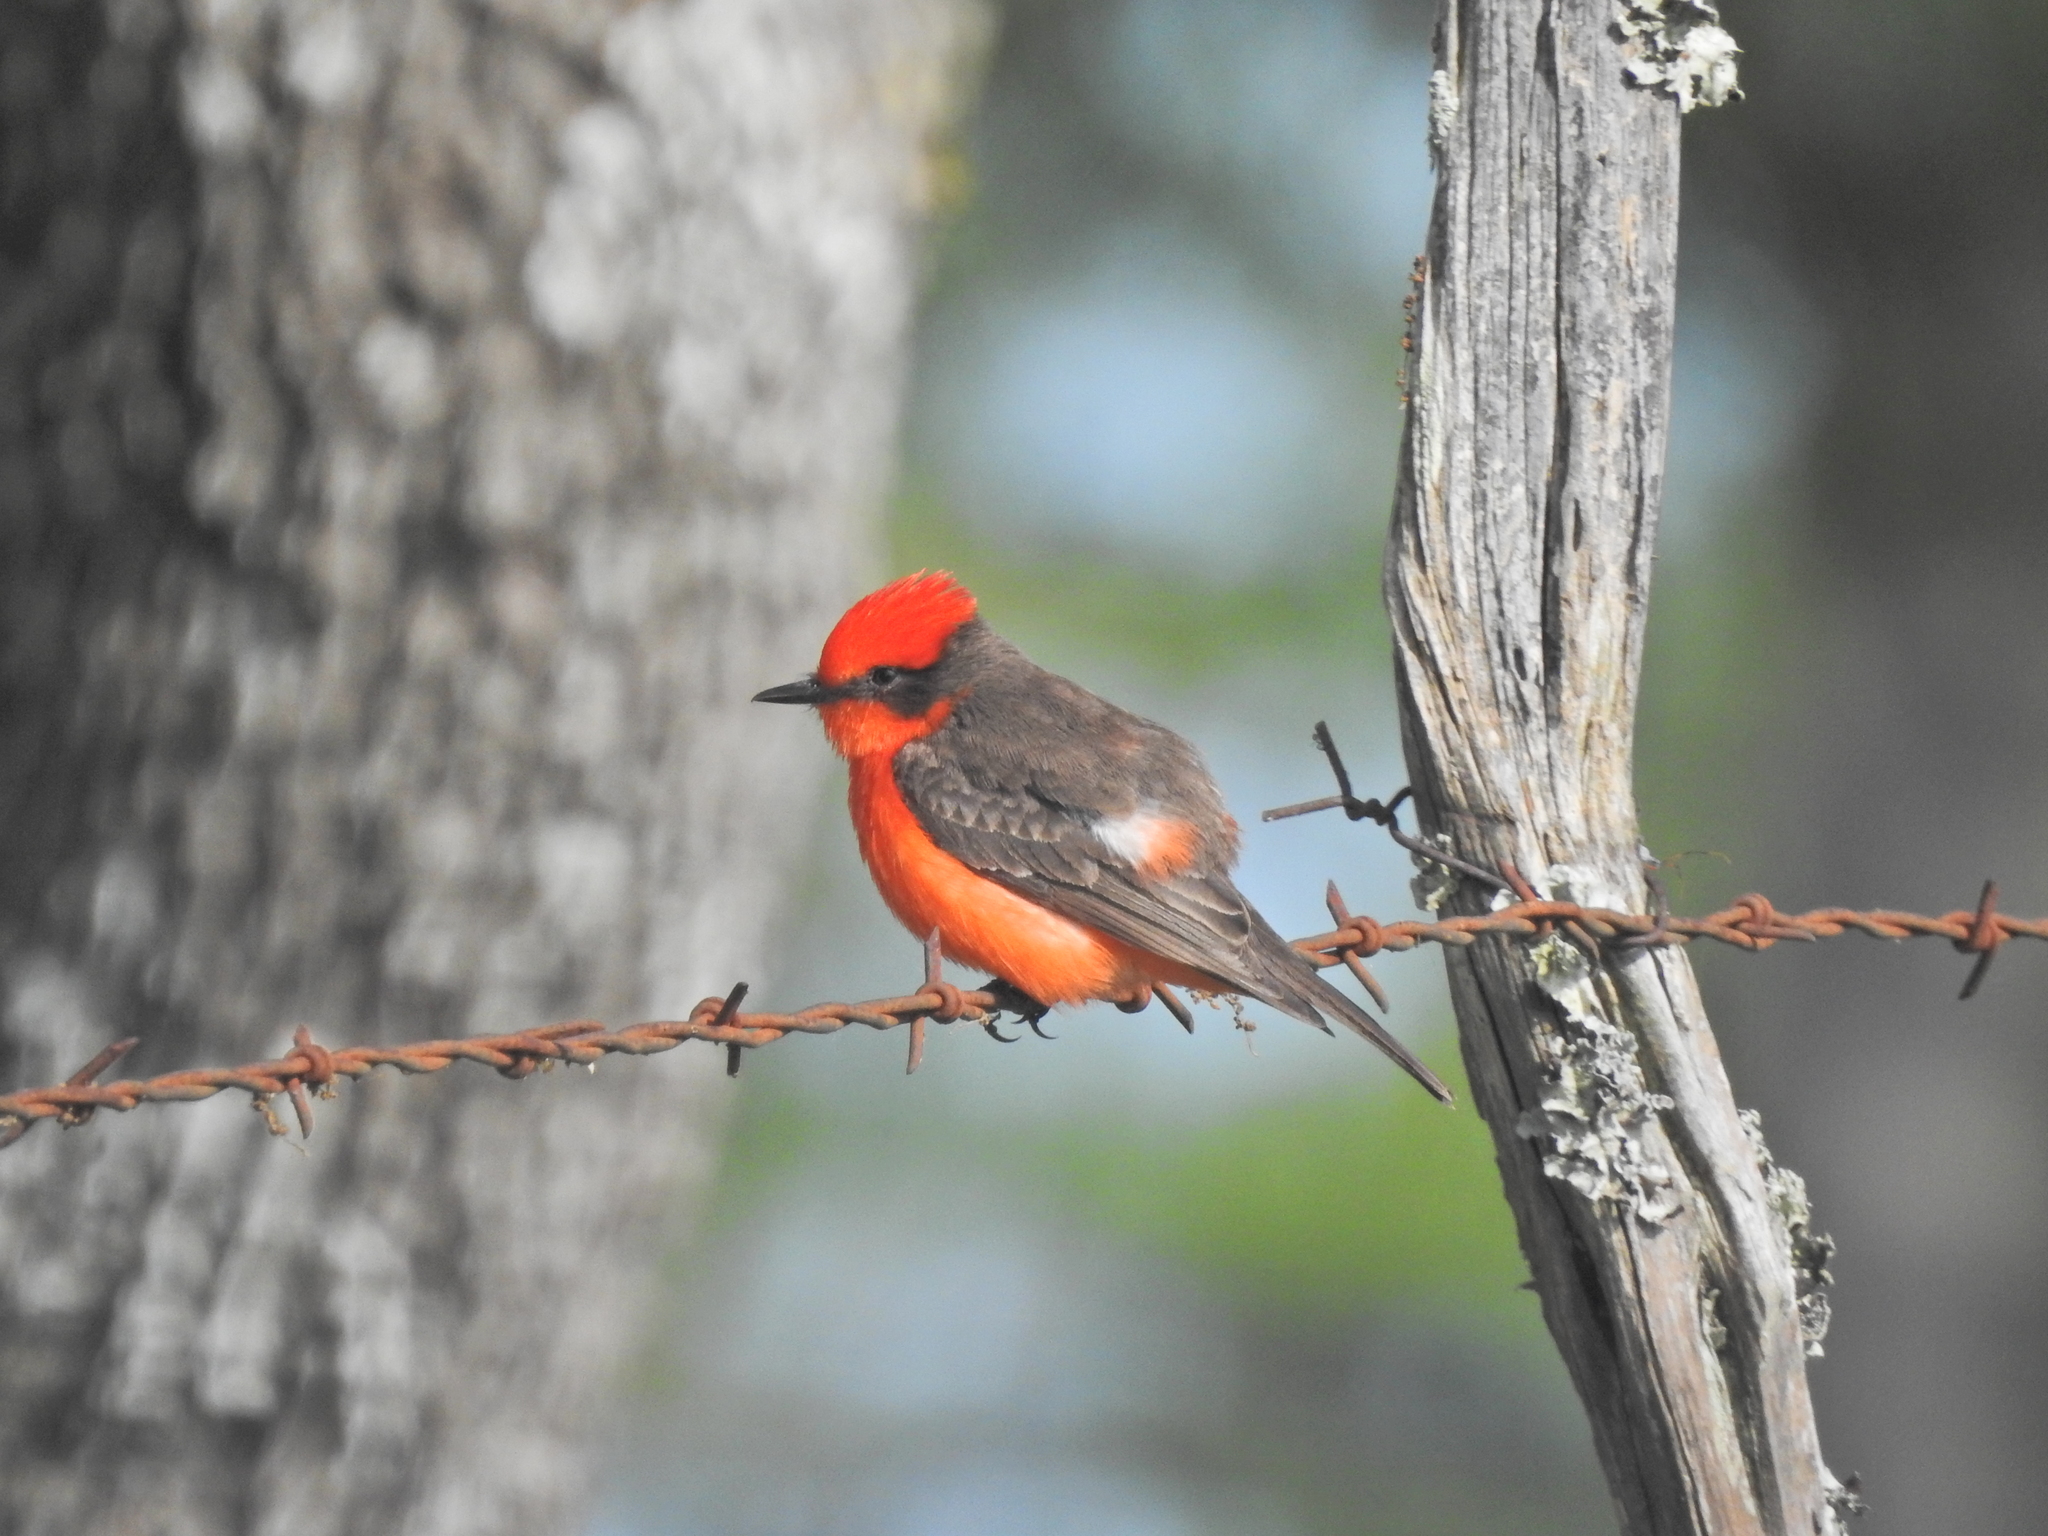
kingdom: Animalia
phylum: Chordata
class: Aves
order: Passeriformes
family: Tyrannidae
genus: Pyrocephalus
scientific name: Pyrocephalus rubinus
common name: Vermilion flycatcher
